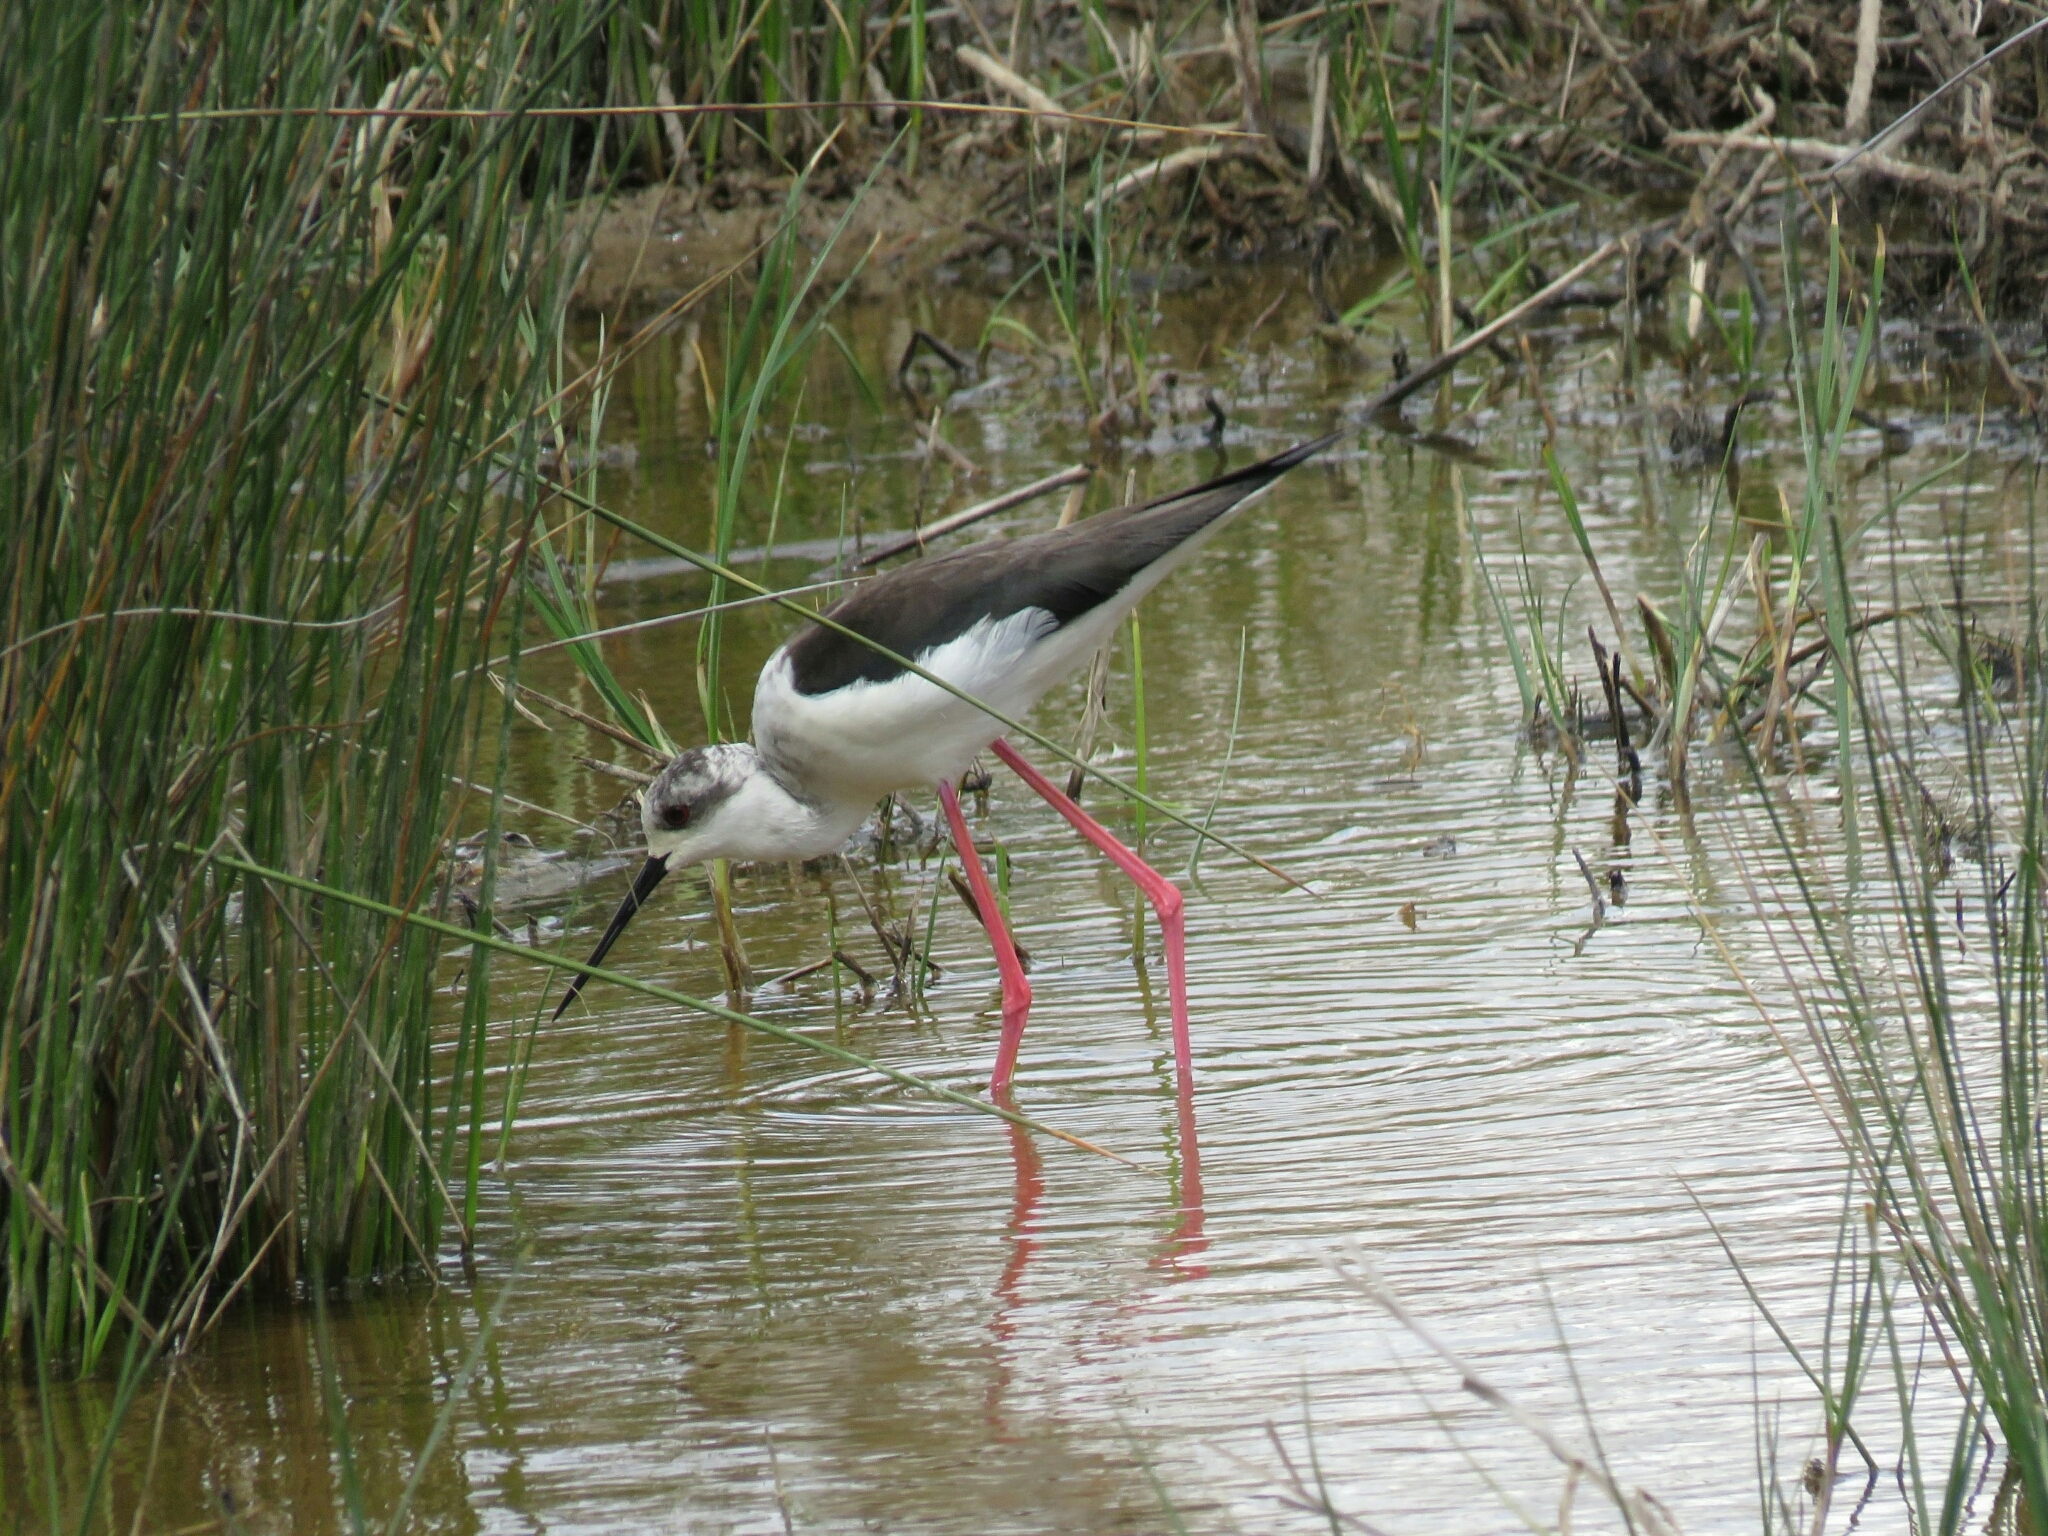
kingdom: Animalia
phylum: Chordata
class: Aves
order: Charadriiformes
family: Recurvirostridae
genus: Himantopus
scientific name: Himantopus himantopus
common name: Black-winged stilt
